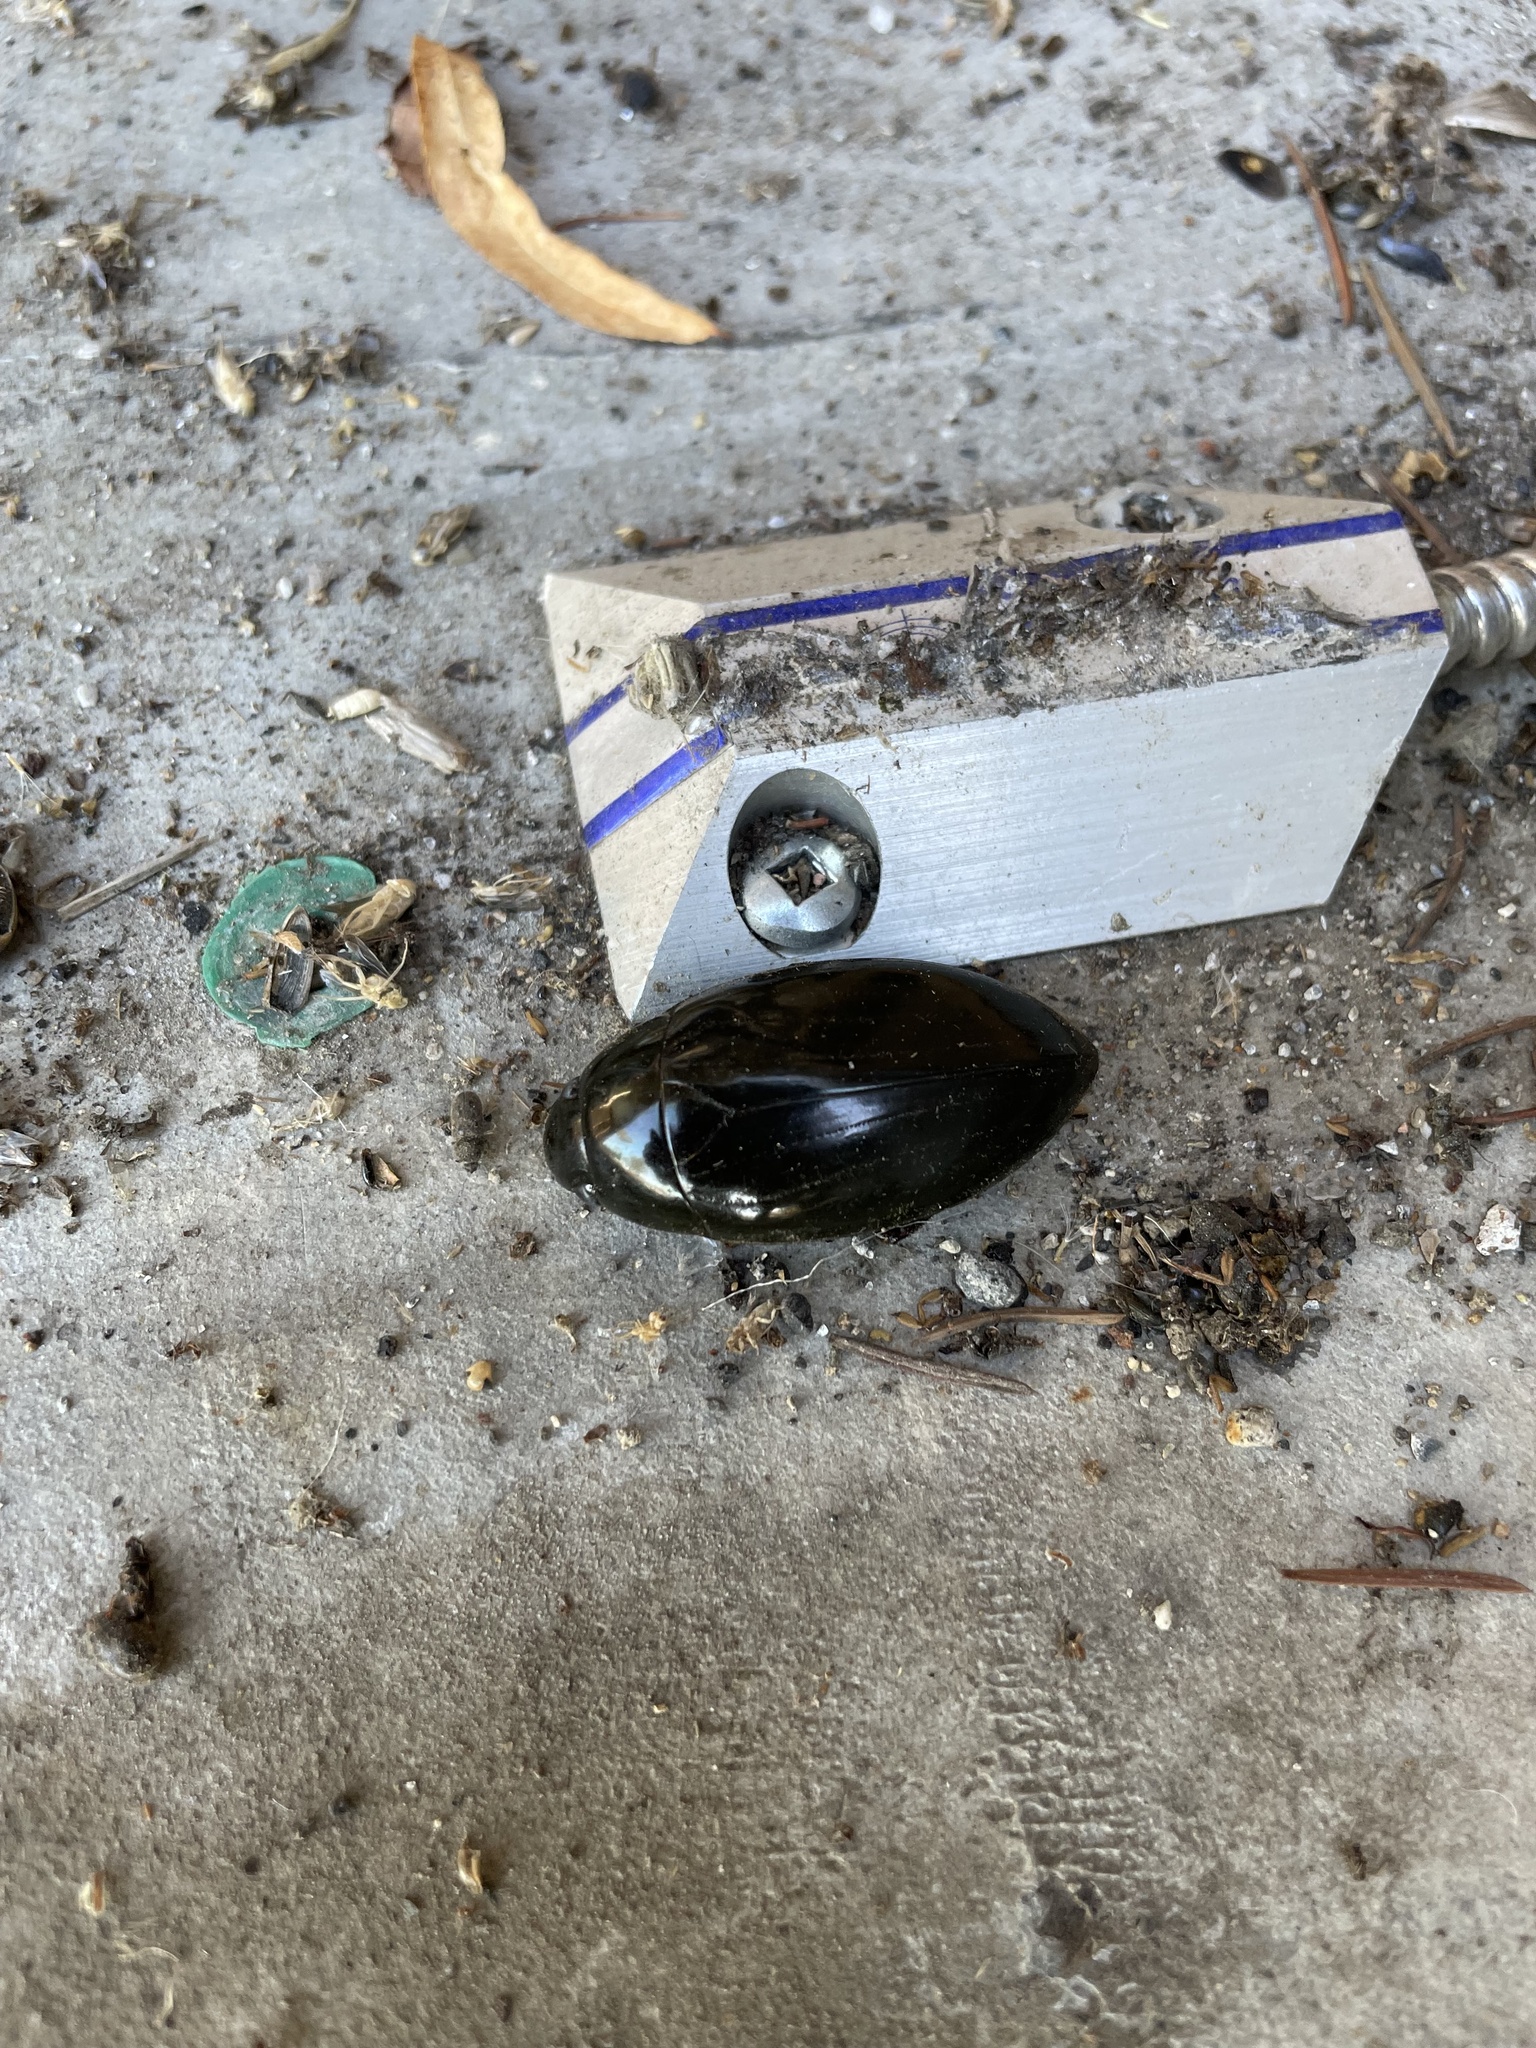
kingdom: Animalia
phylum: Arthropoda
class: Insecta
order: Coleoptera
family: Hydrophilidae
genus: Hydrophilus
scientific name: Hydrophilus triangularis
